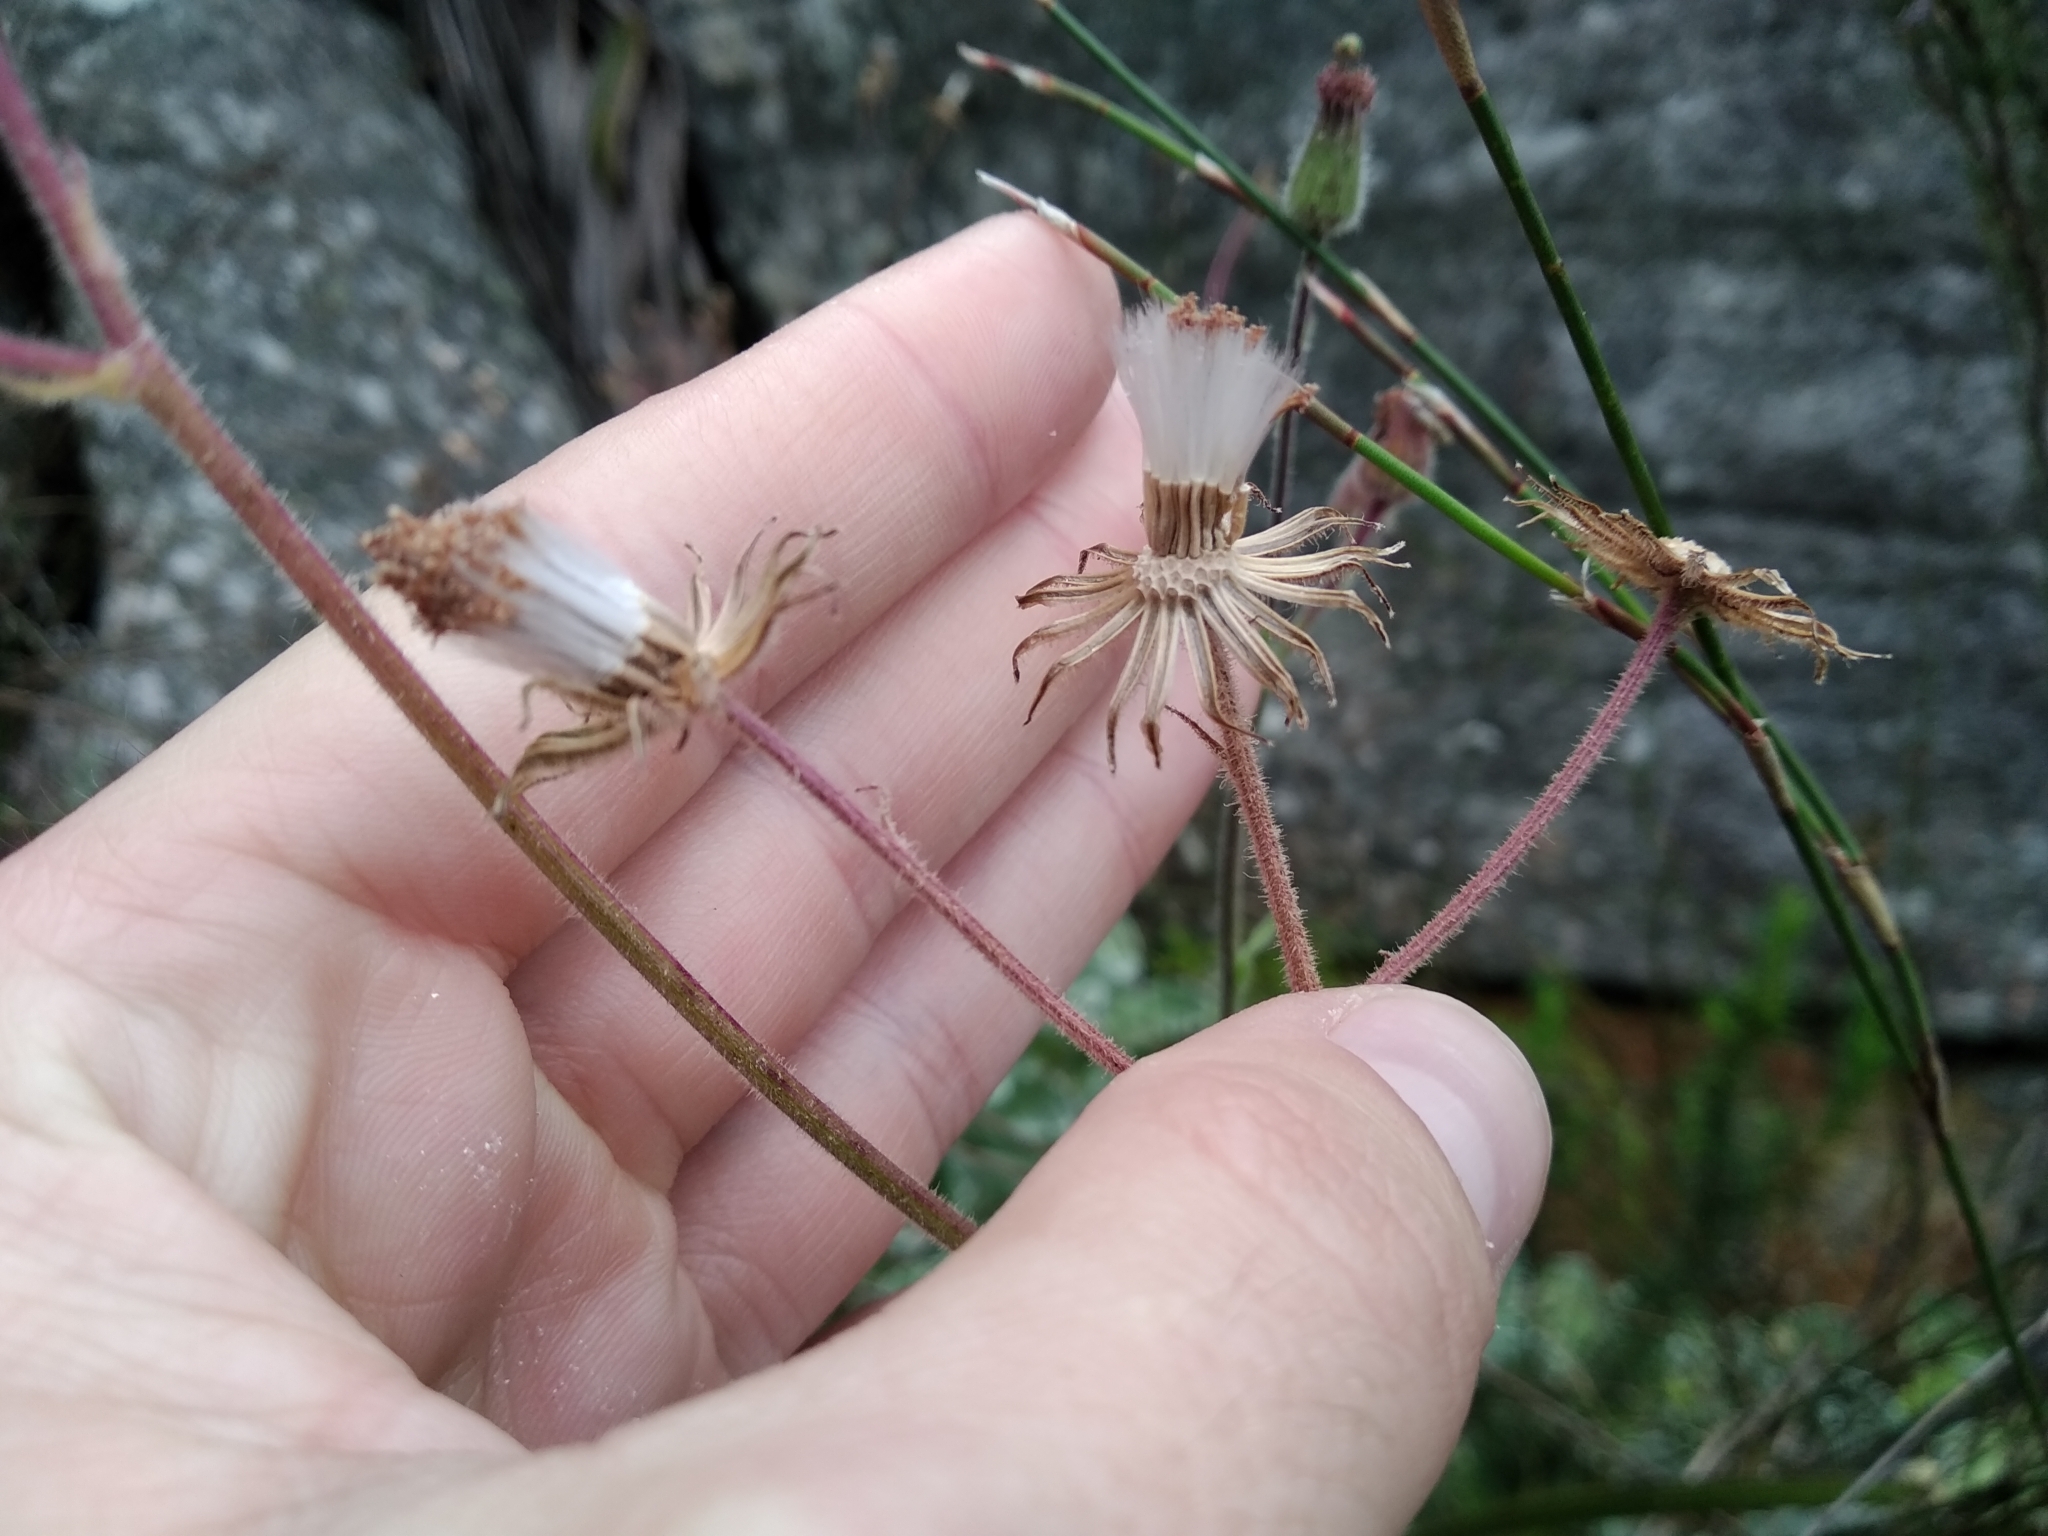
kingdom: Plantae
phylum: Tracheophyta
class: Magnoliopsida
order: Asterales
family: Asteraceae
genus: Senecio
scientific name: Senecio purpureus
